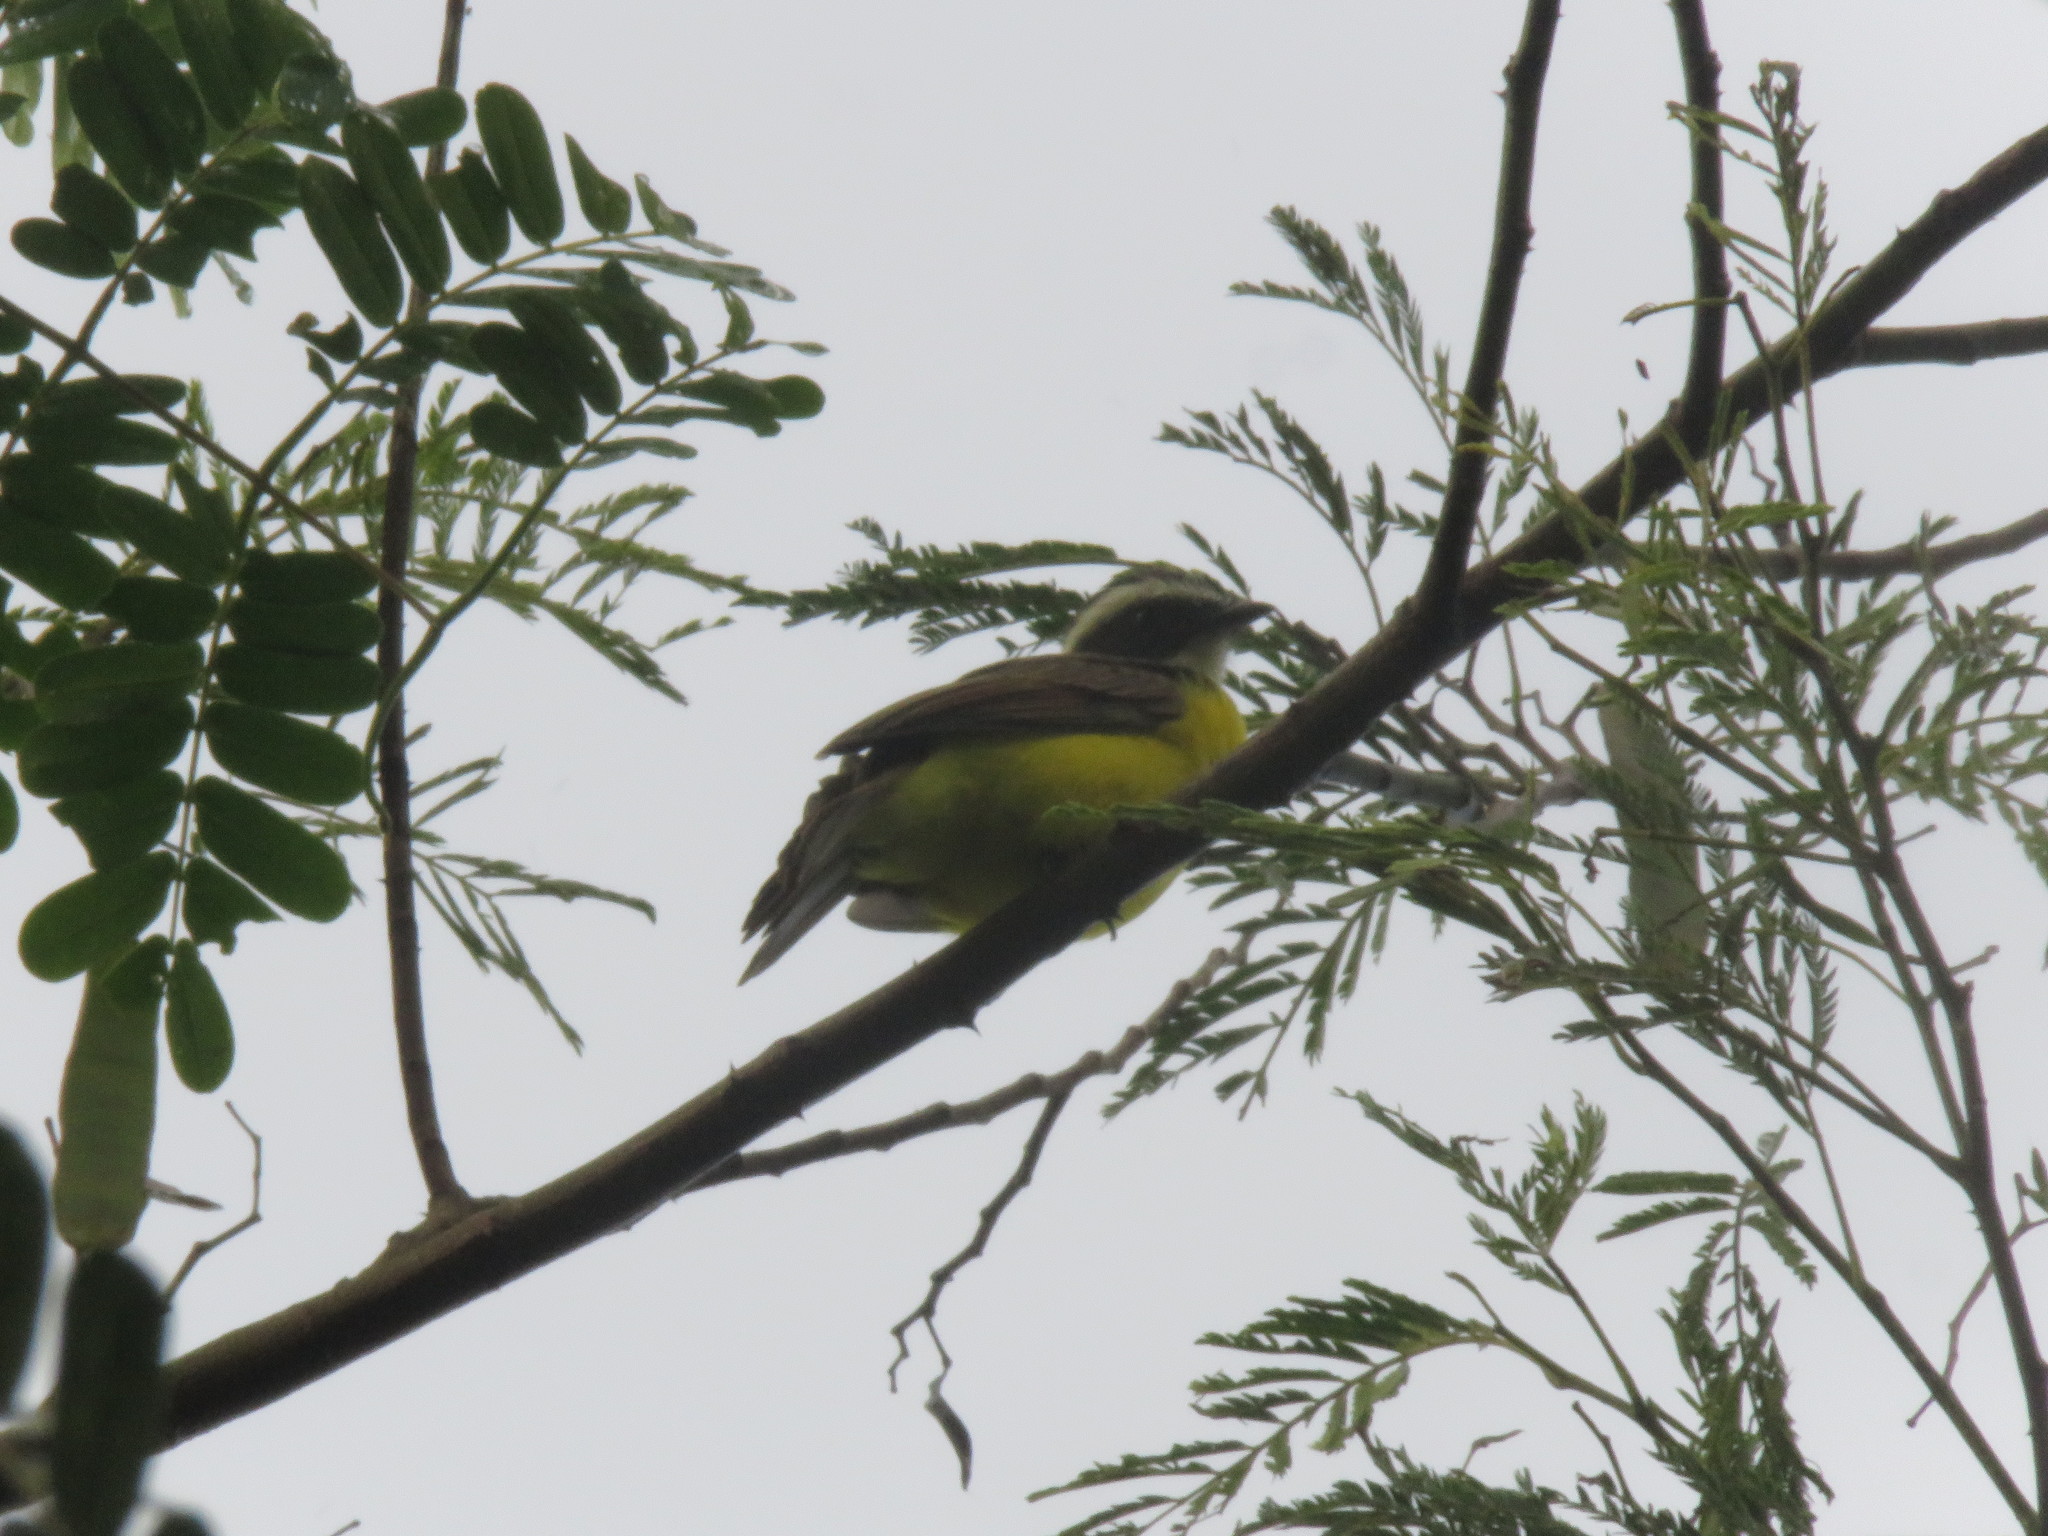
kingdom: Animalia
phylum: Chordata
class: Aves
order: Passeriformes
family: Tyrannidae
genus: Myiozetetes
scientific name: Myiozetetes cayanensis
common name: Rusty-margined flycatcher
